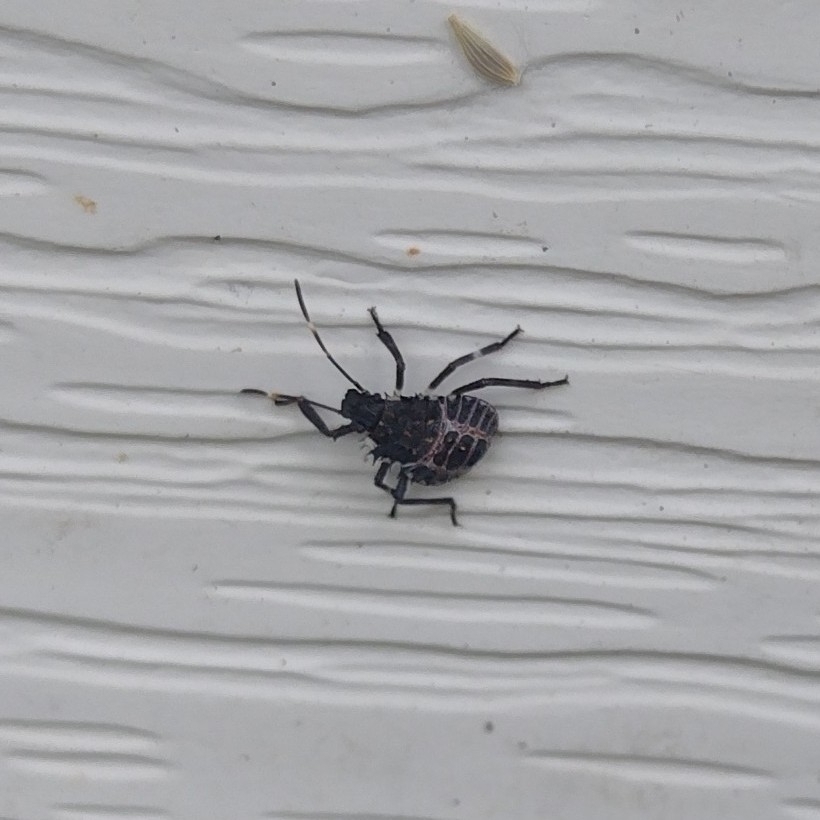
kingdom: Animalia
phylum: Arthropoda
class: Insecta
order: Hemiptera
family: Pentatomidae
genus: Halyomorpha
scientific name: Halyomorpha halys
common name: Brown marmorated stink bug
